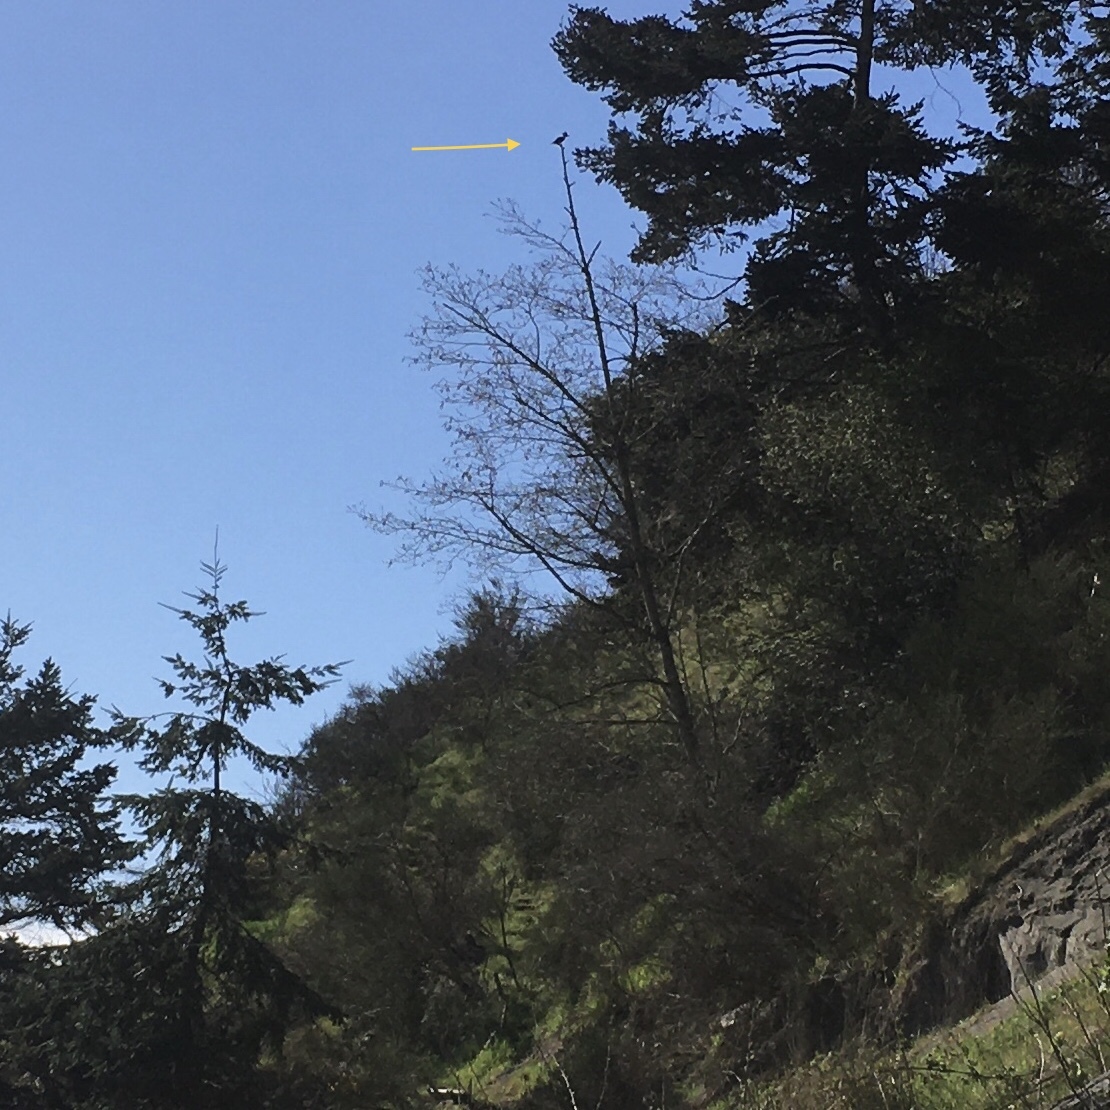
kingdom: Animalia
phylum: Chordata
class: Aves
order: Coraciiformes
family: Alcedinidae
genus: Megaceryle
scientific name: Megaceryle alcyon
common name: Belted kingfisher
